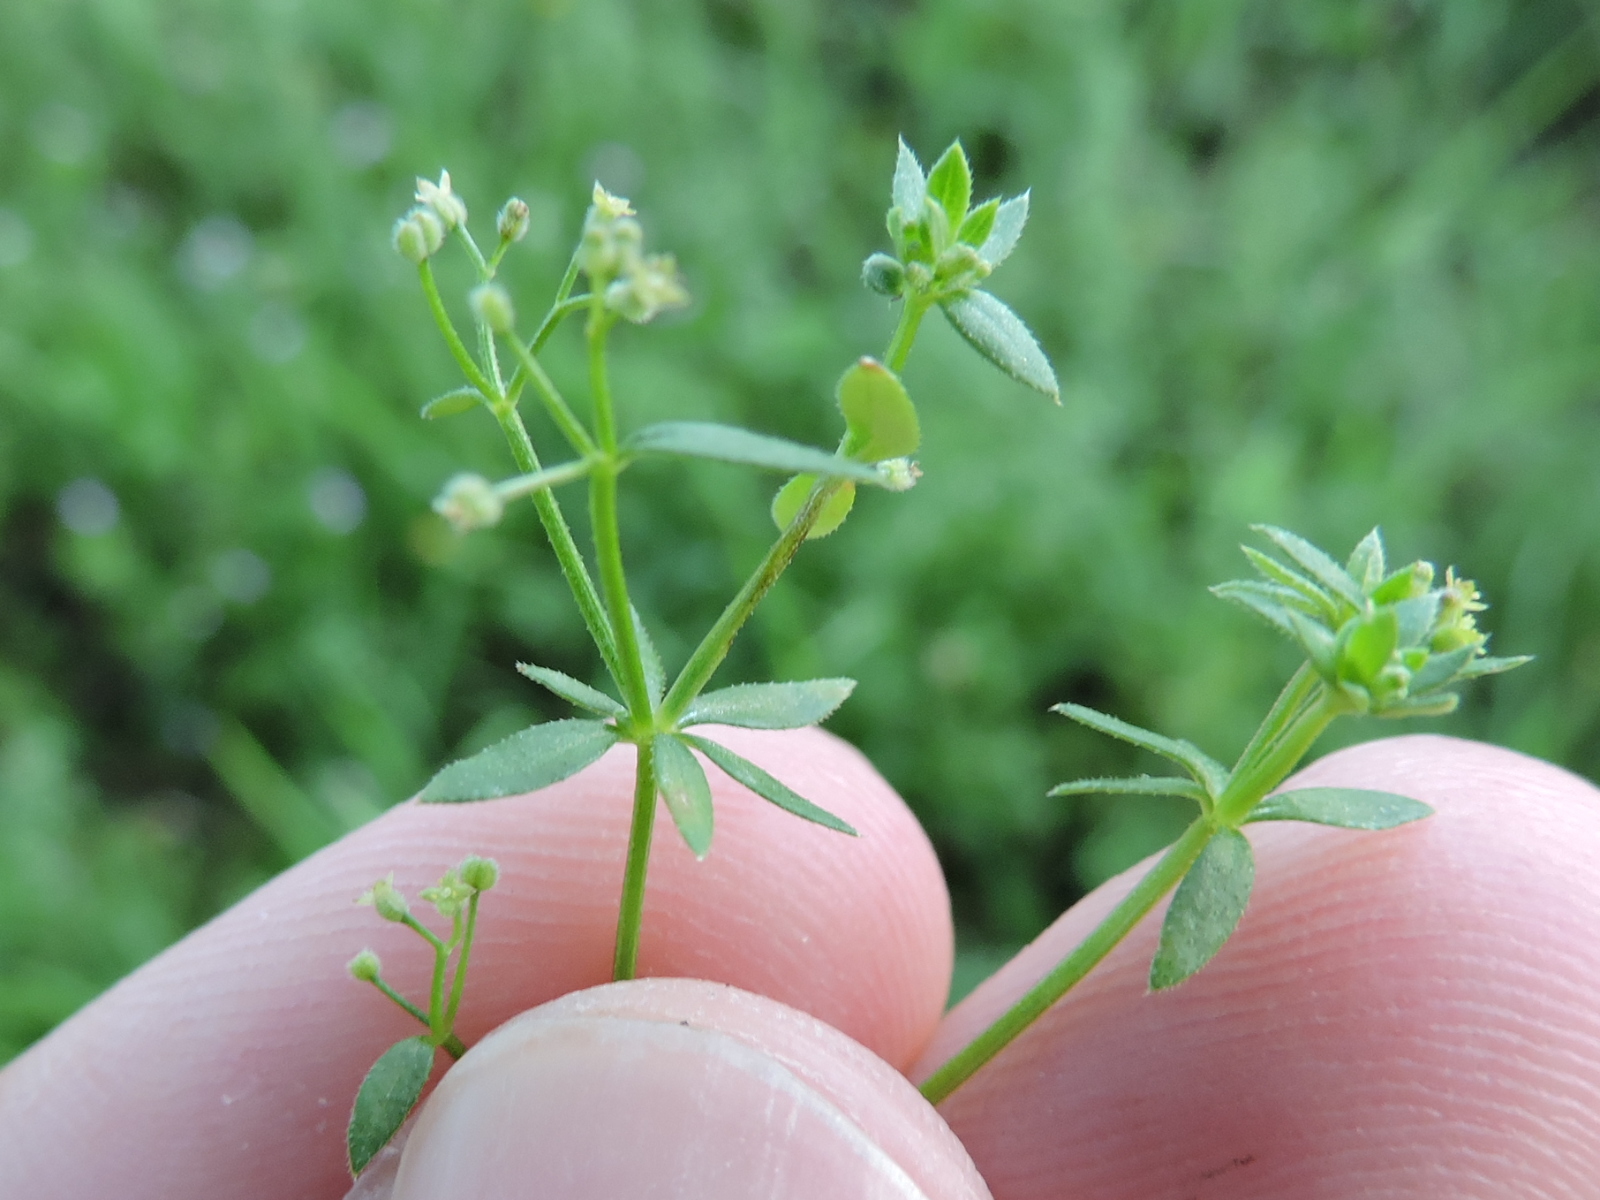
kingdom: Plantae
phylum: Tracheophyta
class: Magnoliopsida
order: Gentianales
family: Rubiaceae
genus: Galium
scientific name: Galium parisiense
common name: Wall bedstraw
